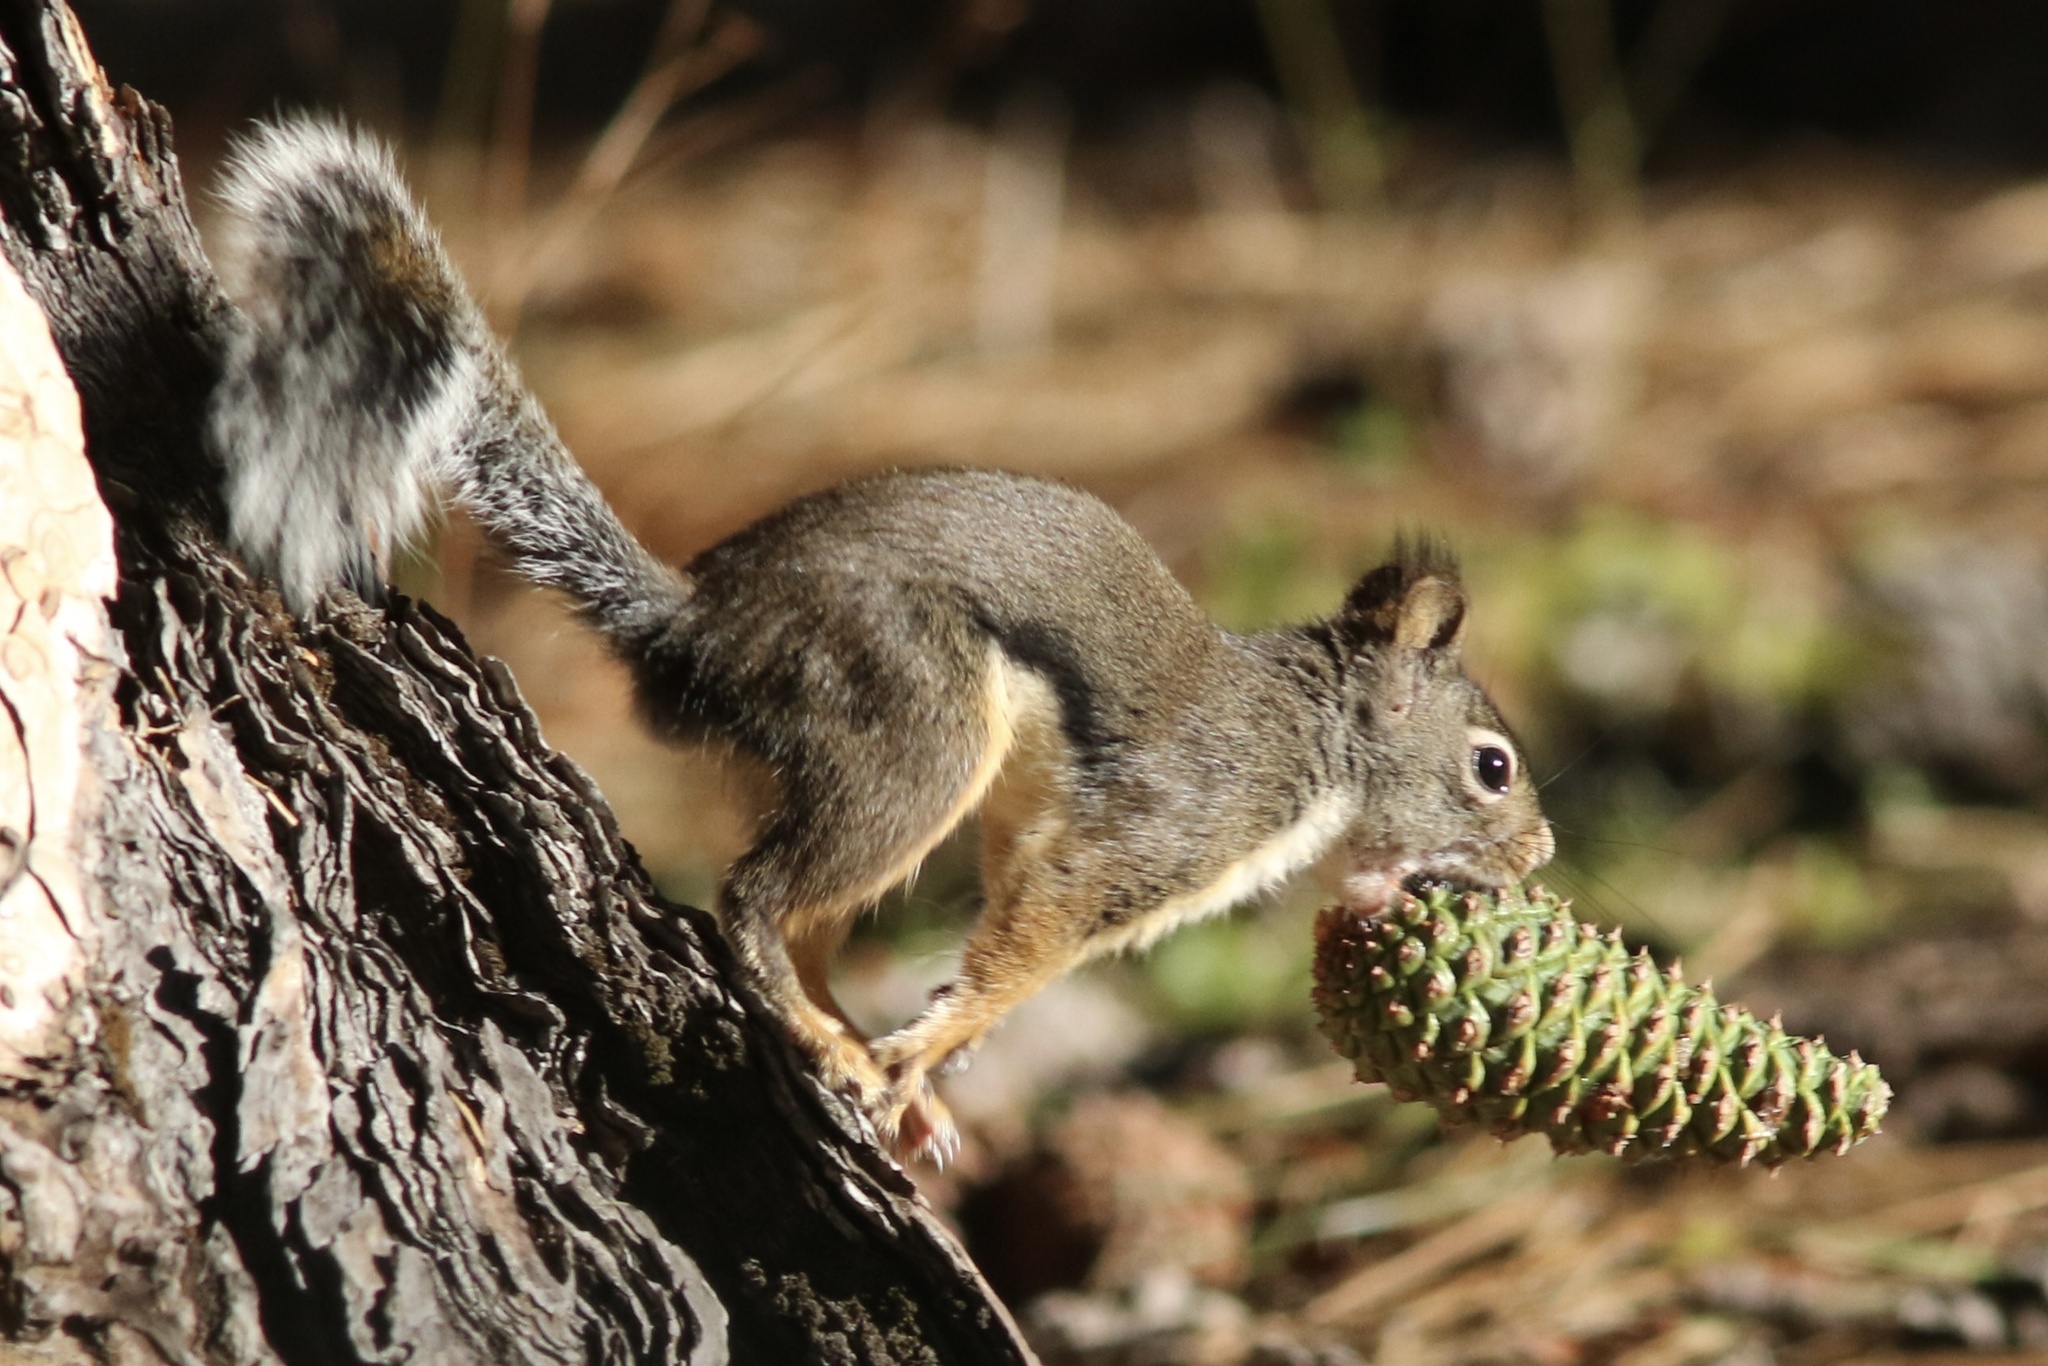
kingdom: Animalia
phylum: Chordata
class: Mammalia
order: Rodentia
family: Sciuridae
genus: Tamiasciurus
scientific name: Tamiasciurus douglasii
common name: Douglas's squirrel
